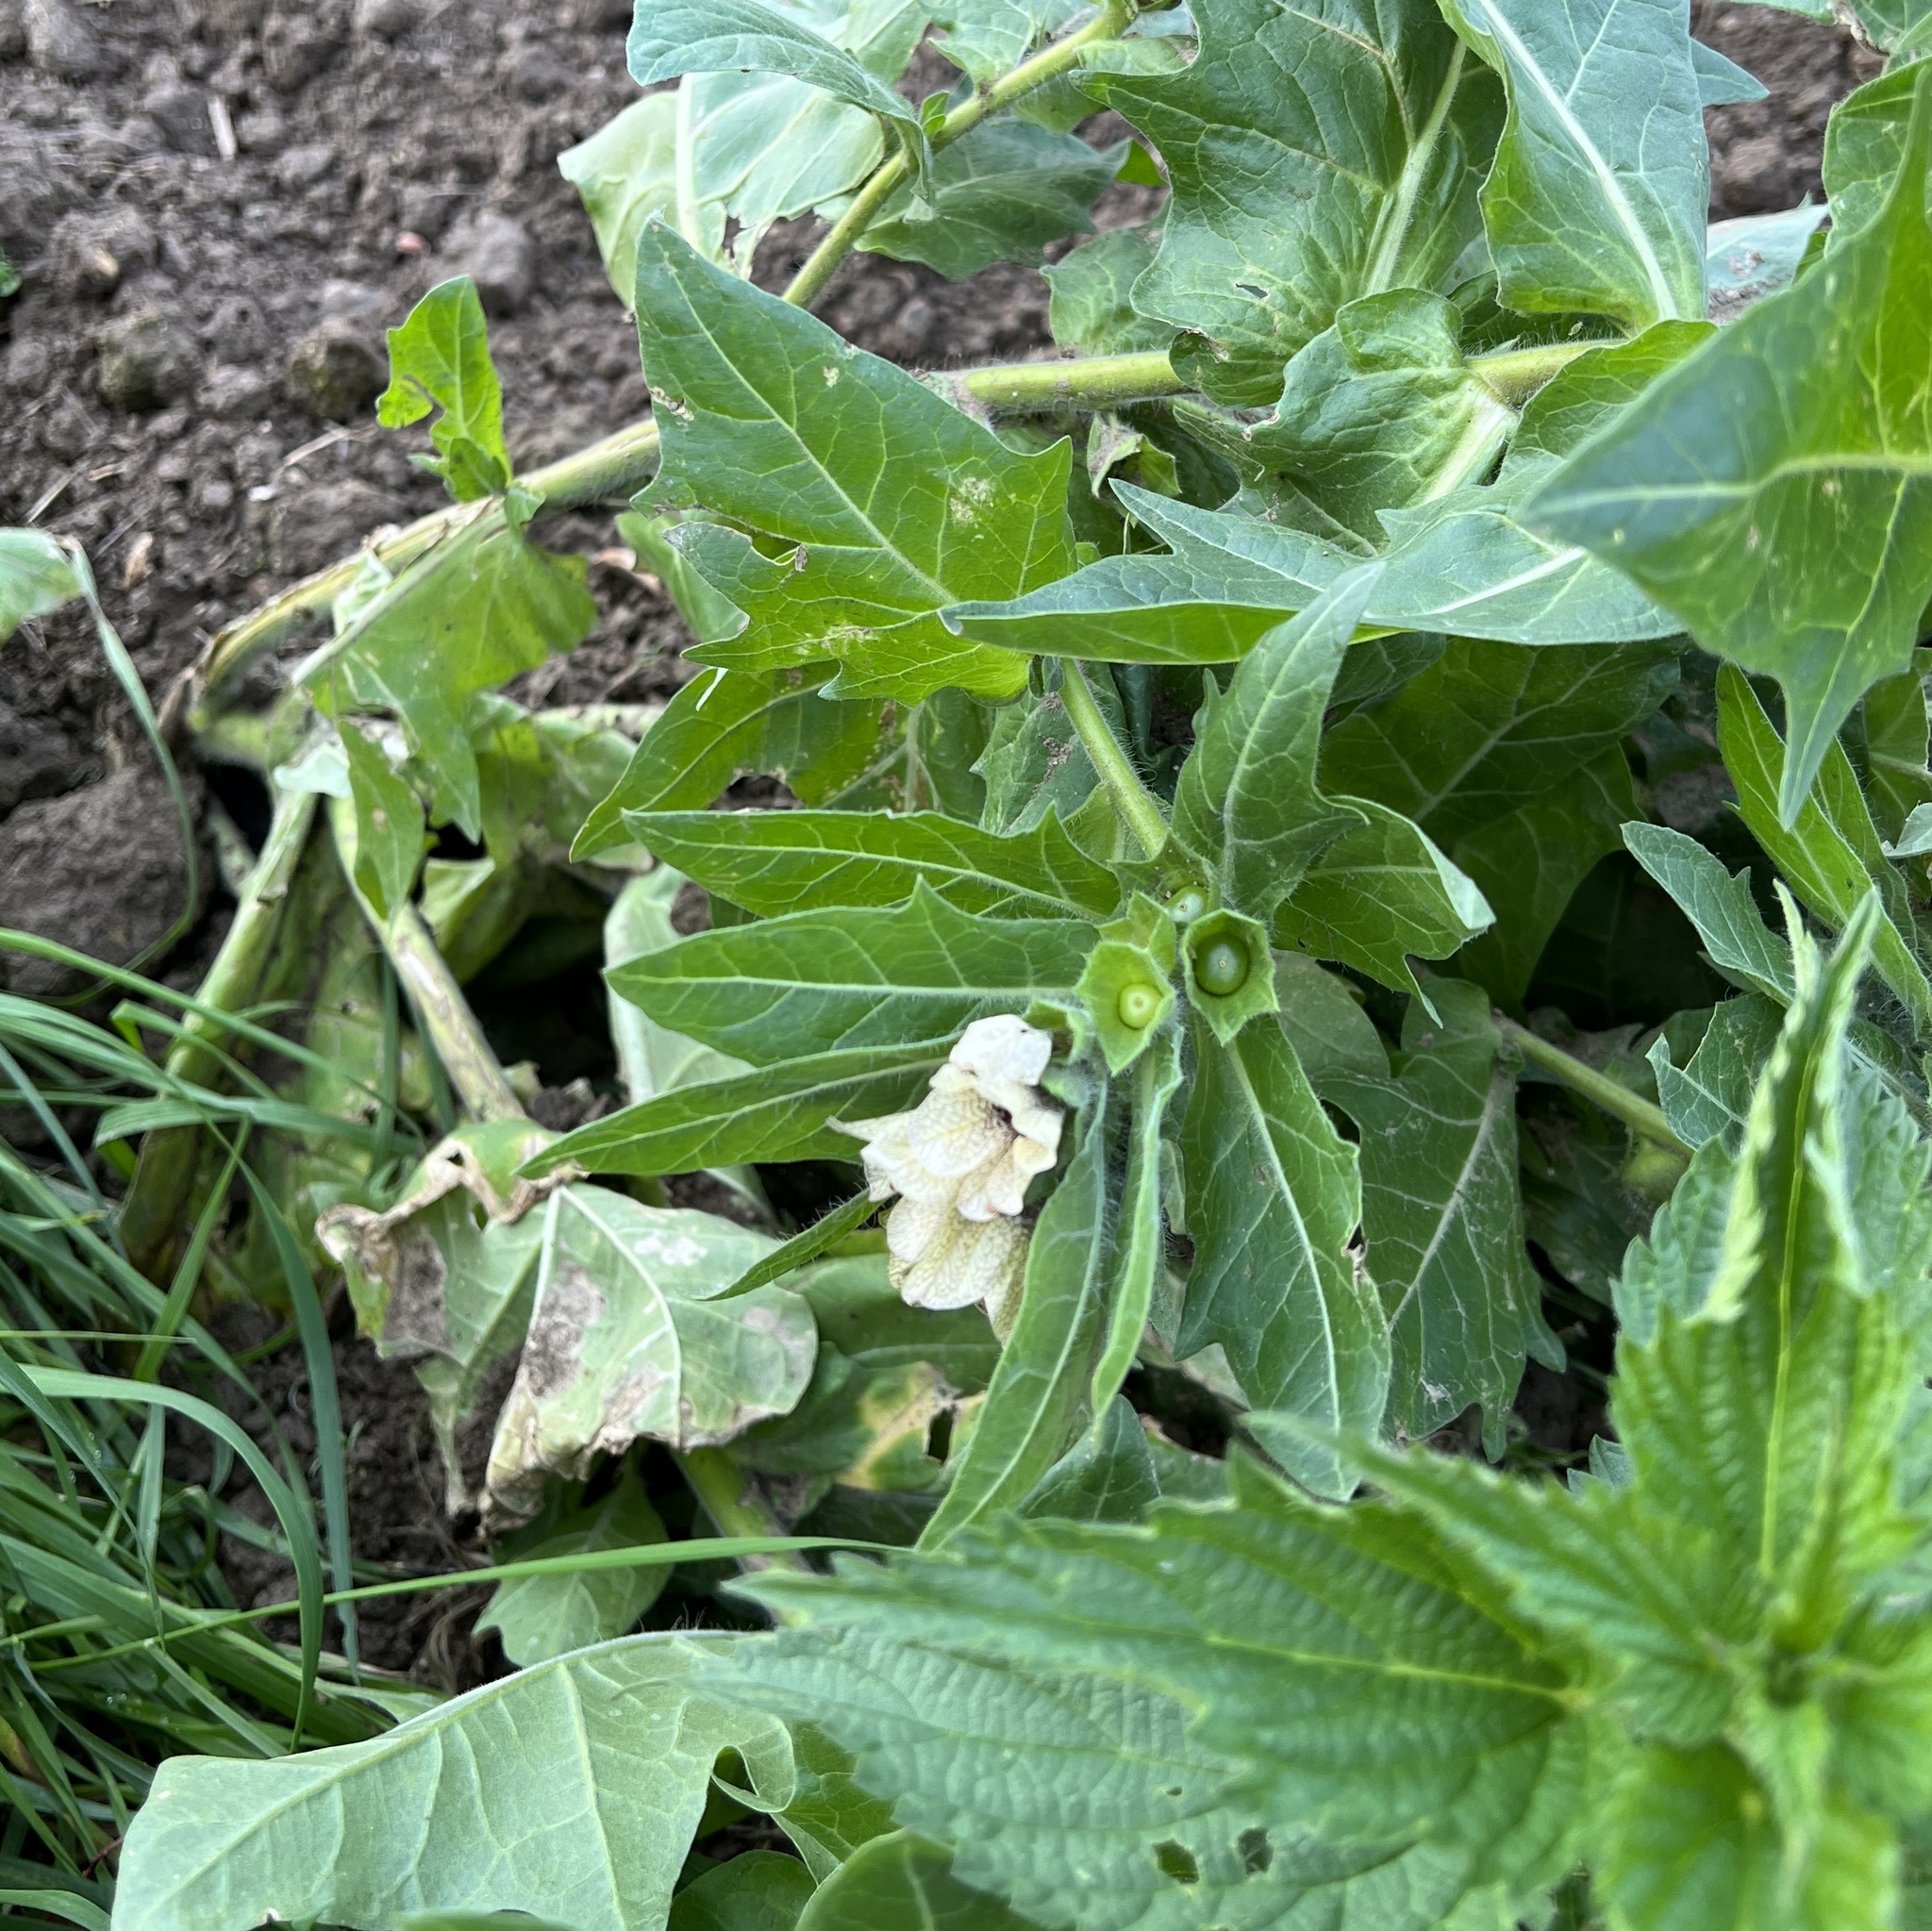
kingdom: Plantae
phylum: Tracheophyta
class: Magnoliopsida
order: Solanales
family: Solanaceae
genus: Hyoscyamus
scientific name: Hyoscyamus niger
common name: Henbane
